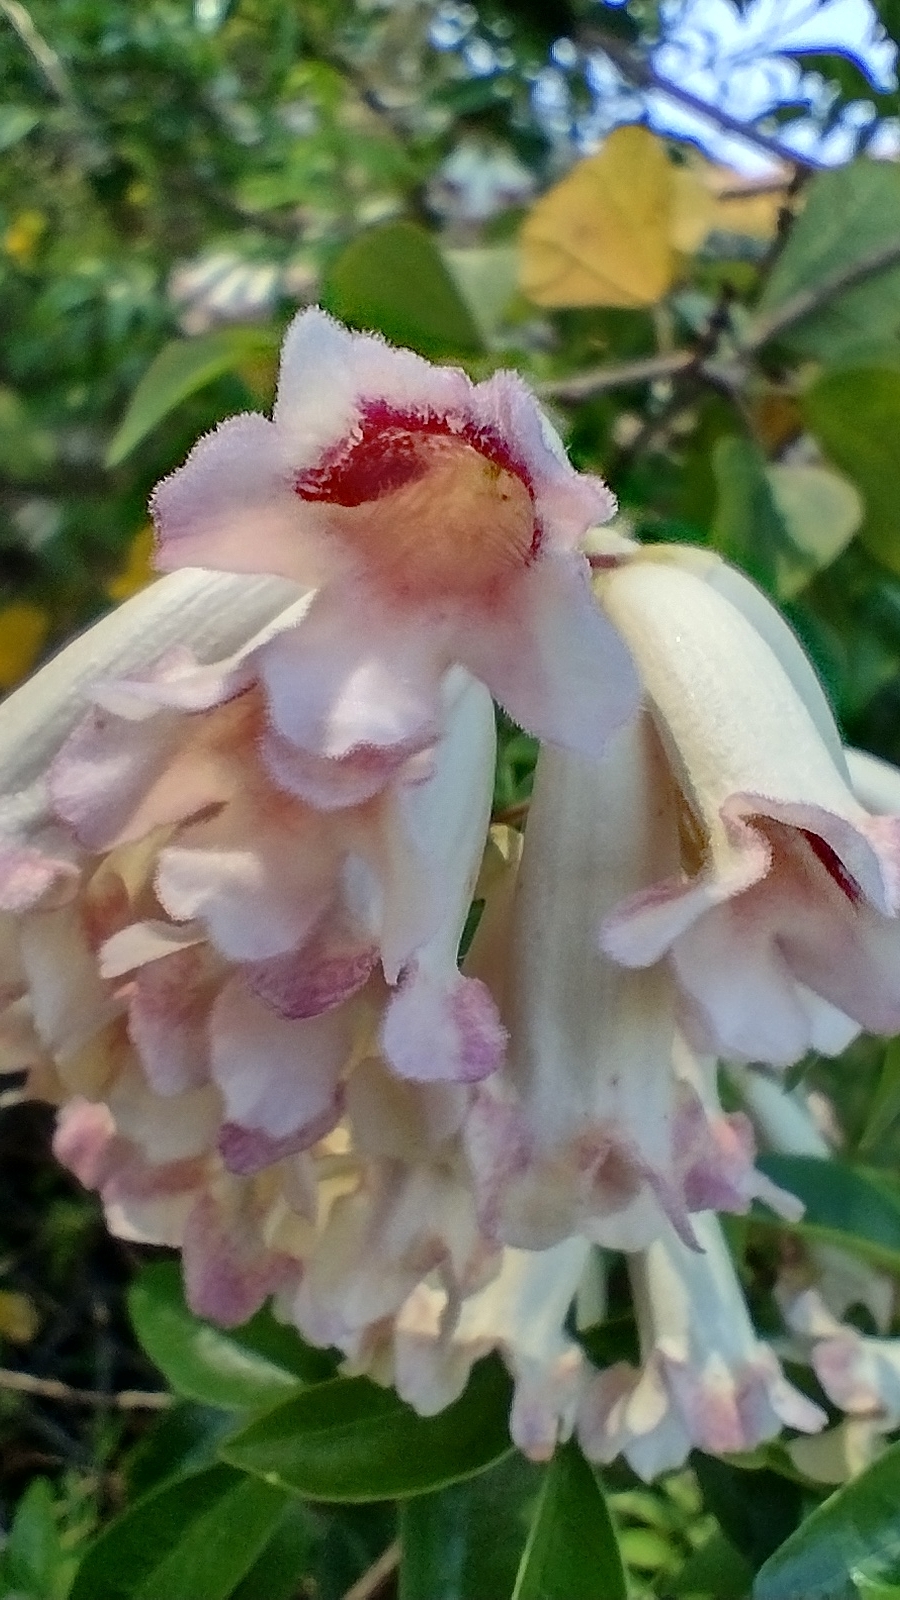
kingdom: Plantae
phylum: Tracheophyta
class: Magnoliopsida
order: Lamiales
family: Bignoniaceae
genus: Pandorea
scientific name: Pandorea pandorana
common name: Wonga-wonga-vine
